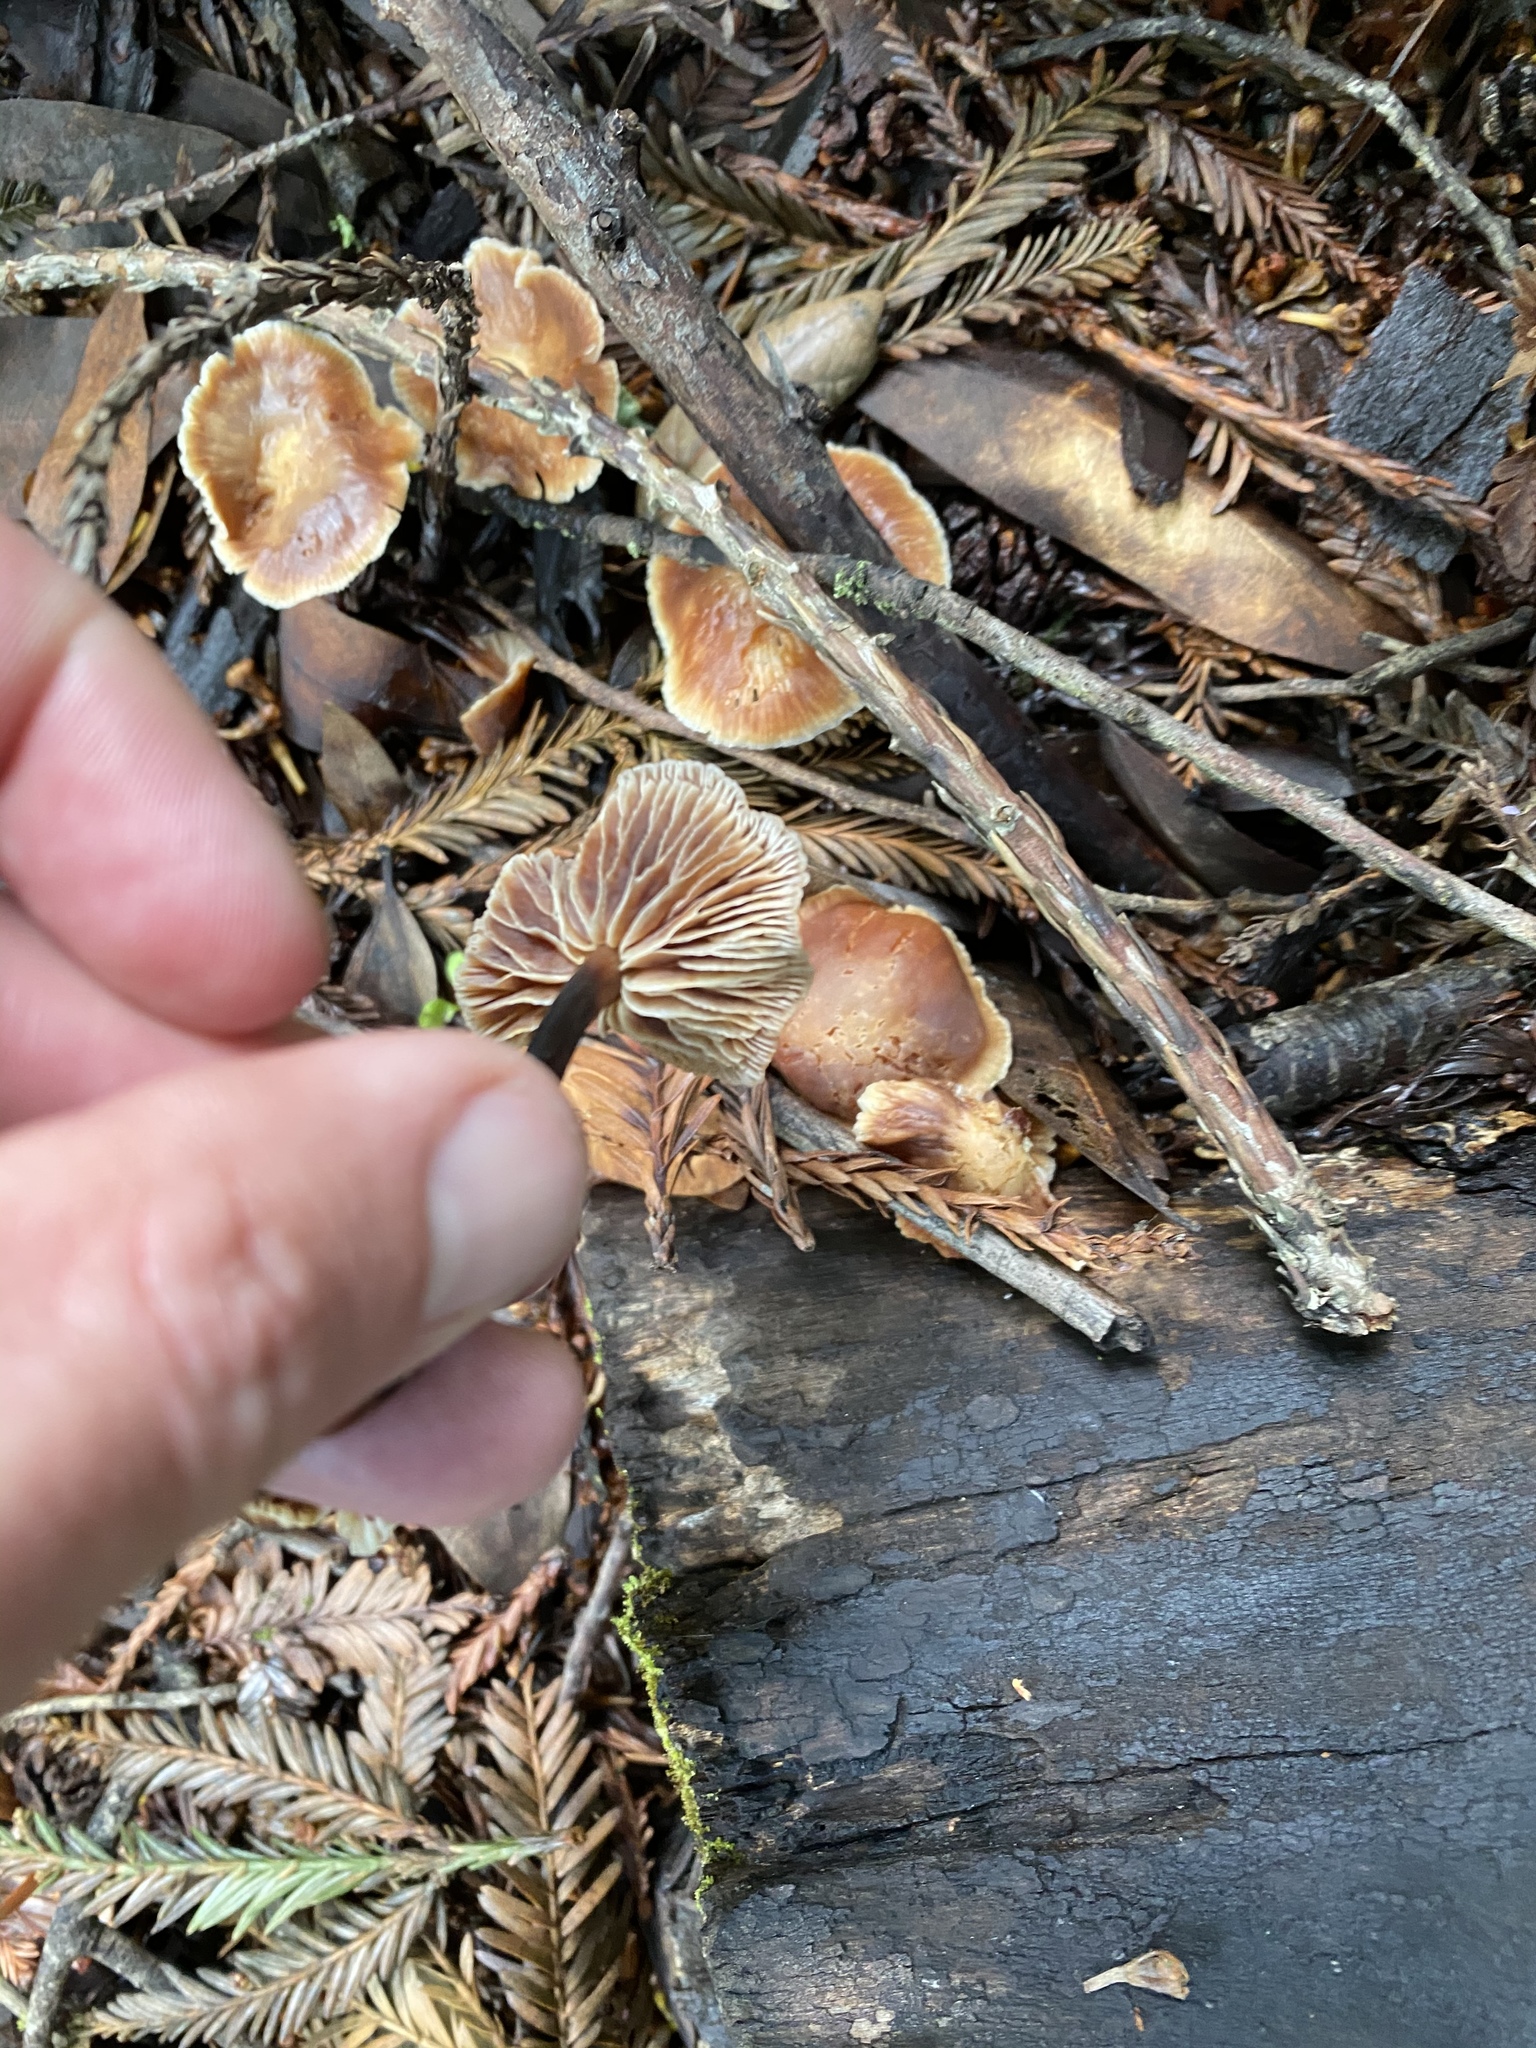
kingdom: Fungi
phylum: Basidiomycota
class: Agaricomycetes
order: Agaricales
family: Omphalotaceae
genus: Gymnopus
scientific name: Gymnopus brassicolens
